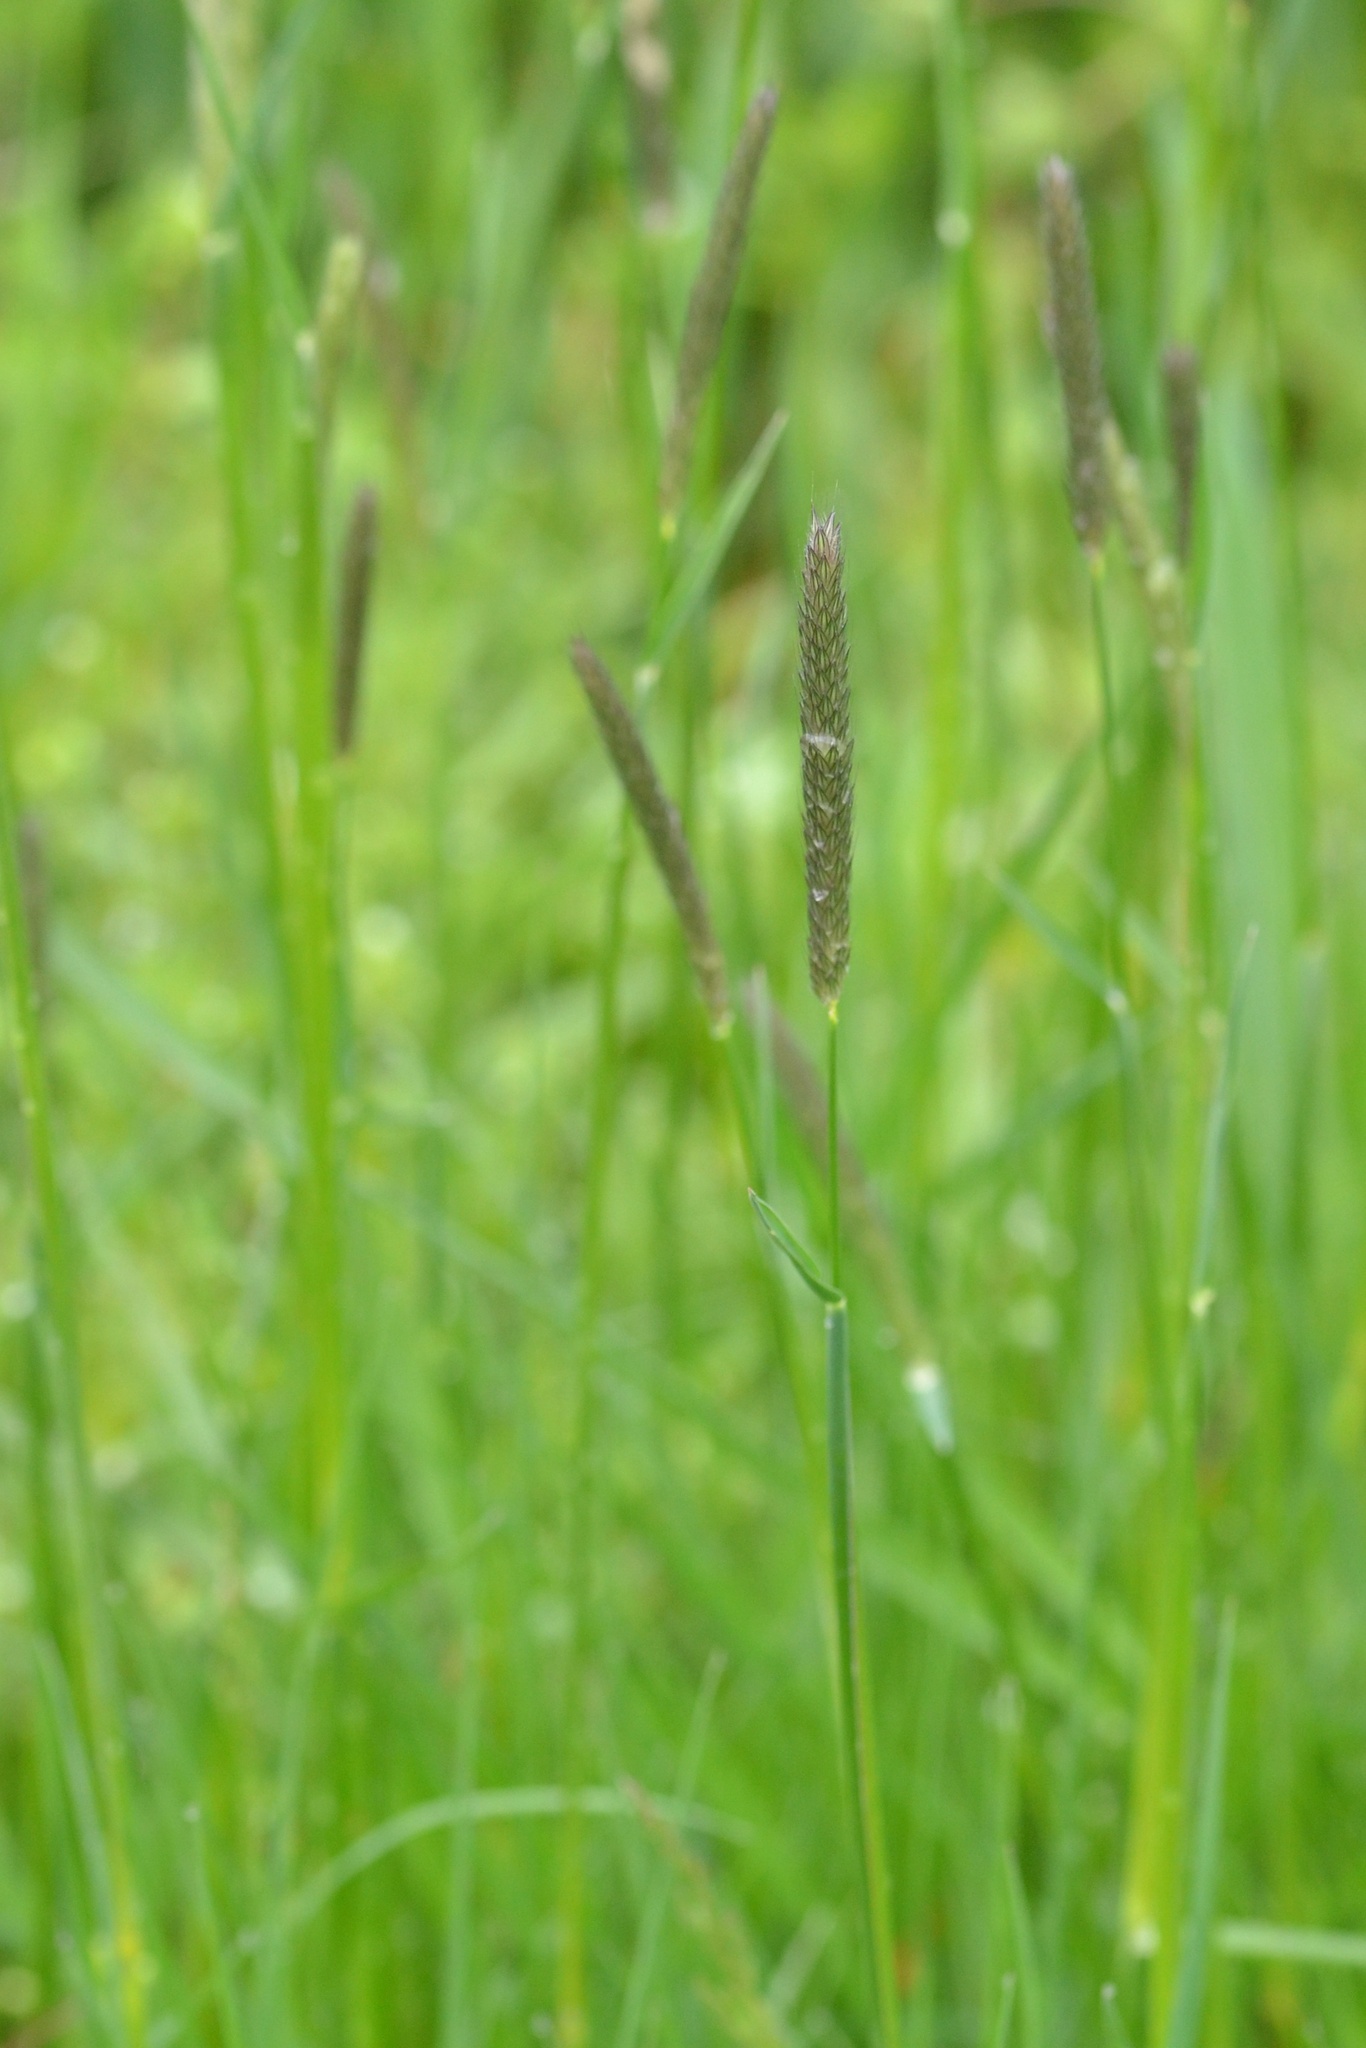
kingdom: Plantae
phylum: Tracheophyta
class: Liliopsida
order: Poales
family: Poaceae
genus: Alopecurus
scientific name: Alopecurus pratensis
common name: Meadow foxtail
